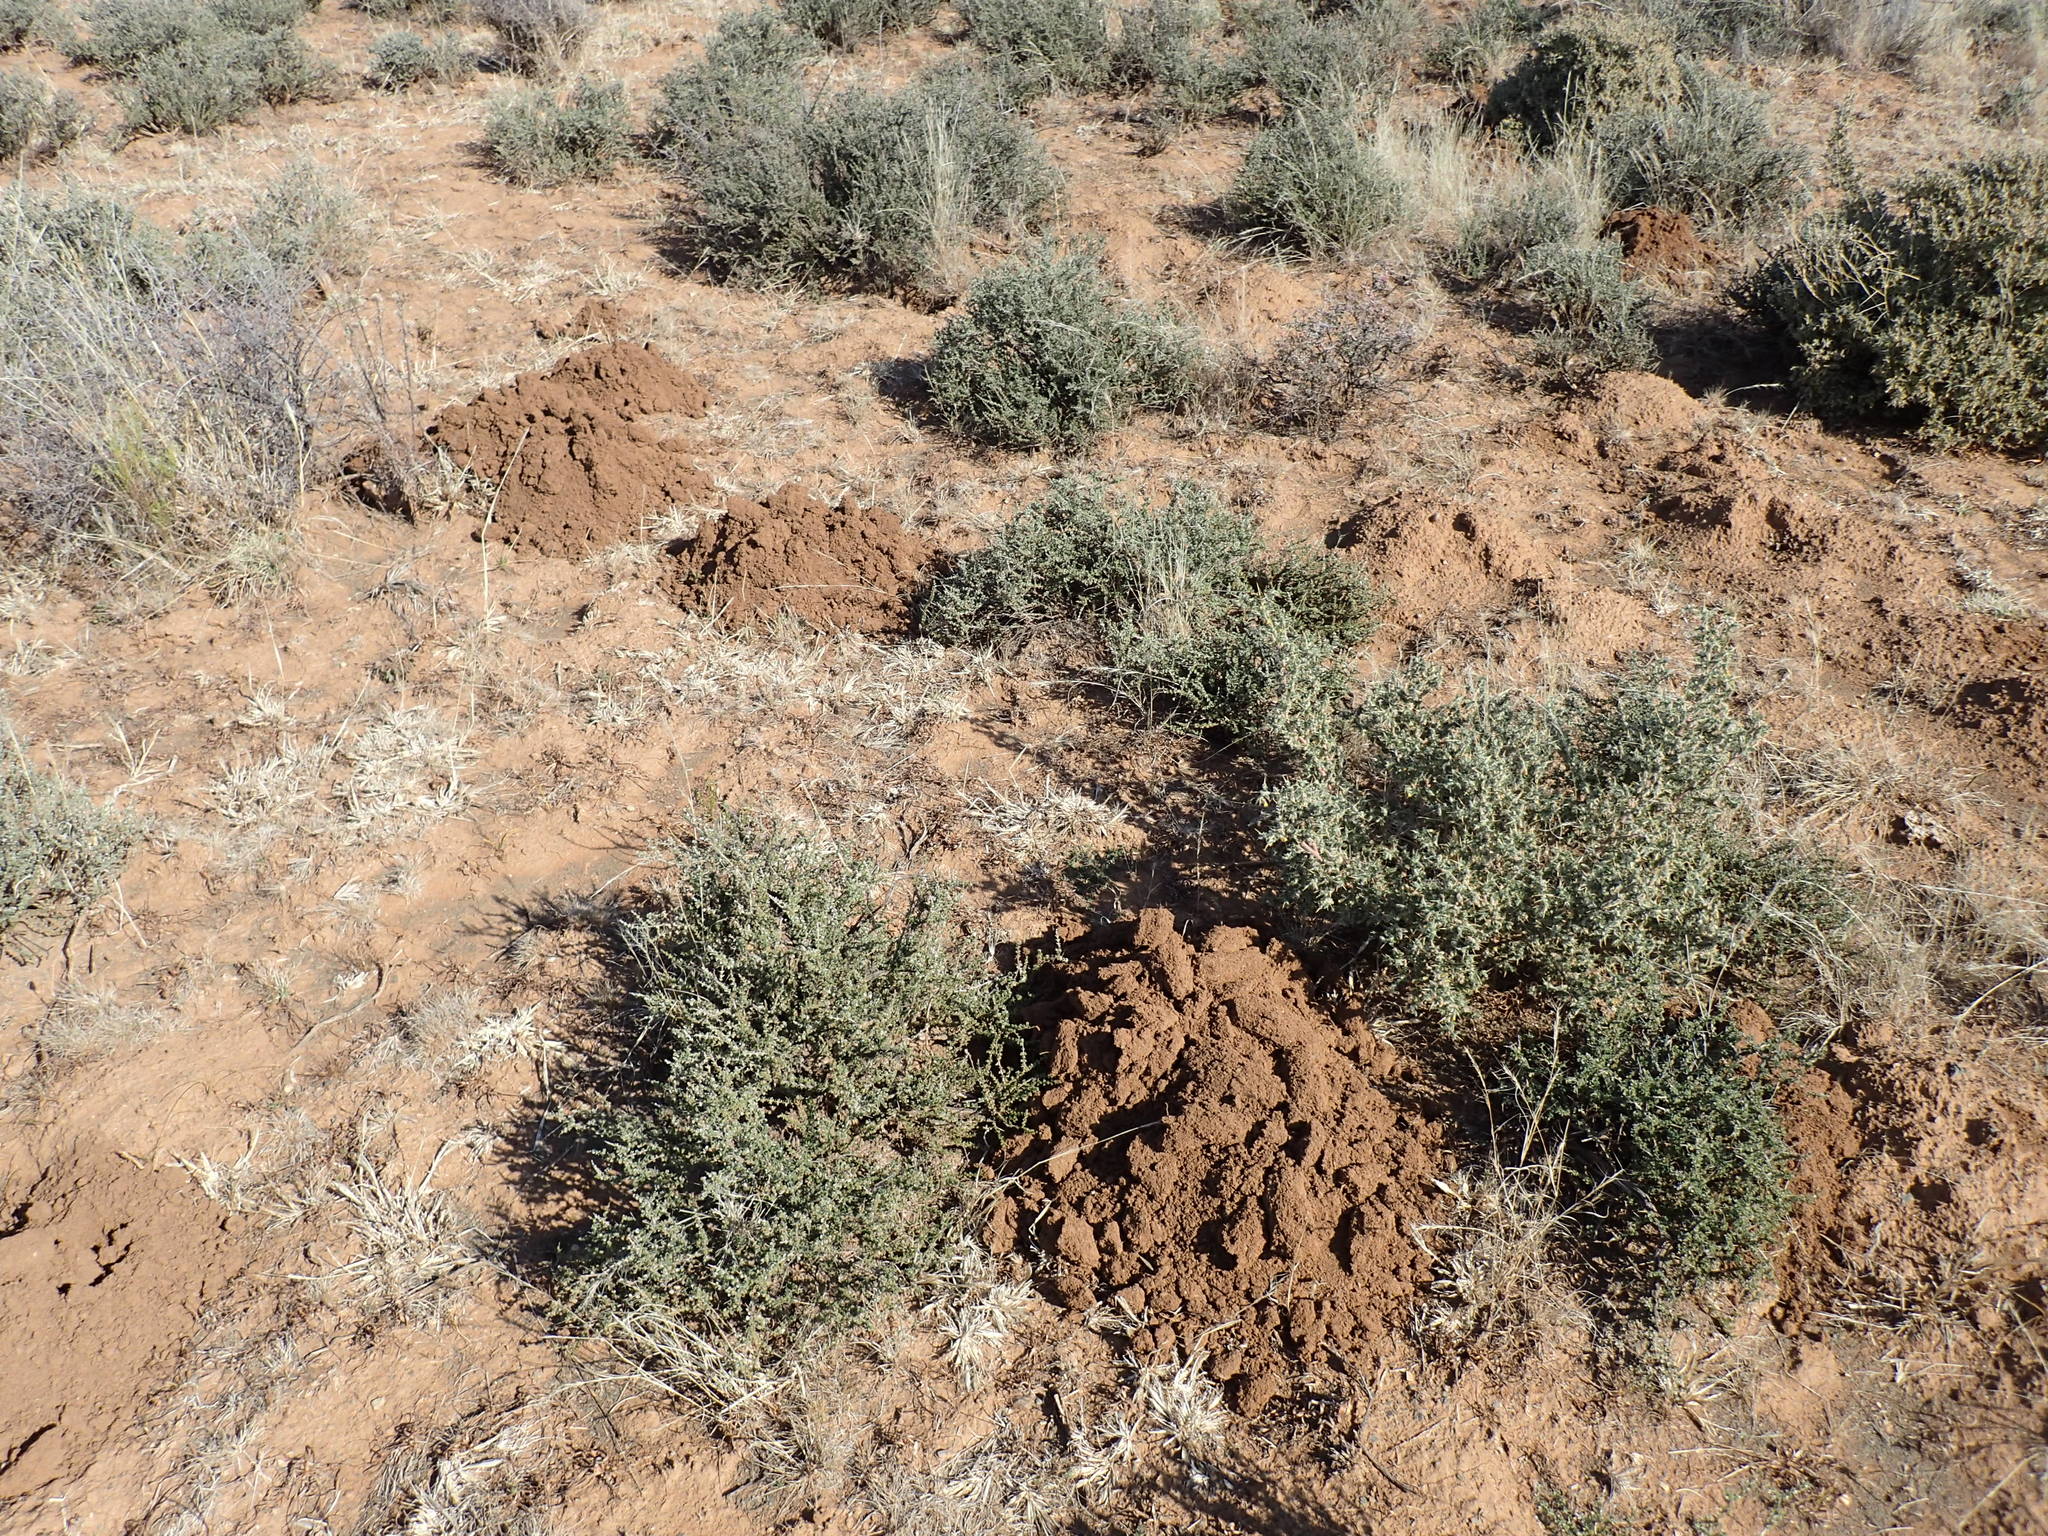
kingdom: Animalia
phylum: Chordata
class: Mammalia
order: Rodentia
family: Bathyergidae
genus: Cryptomys
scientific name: Cryptomys hottentotus
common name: Southern african mole-rat
